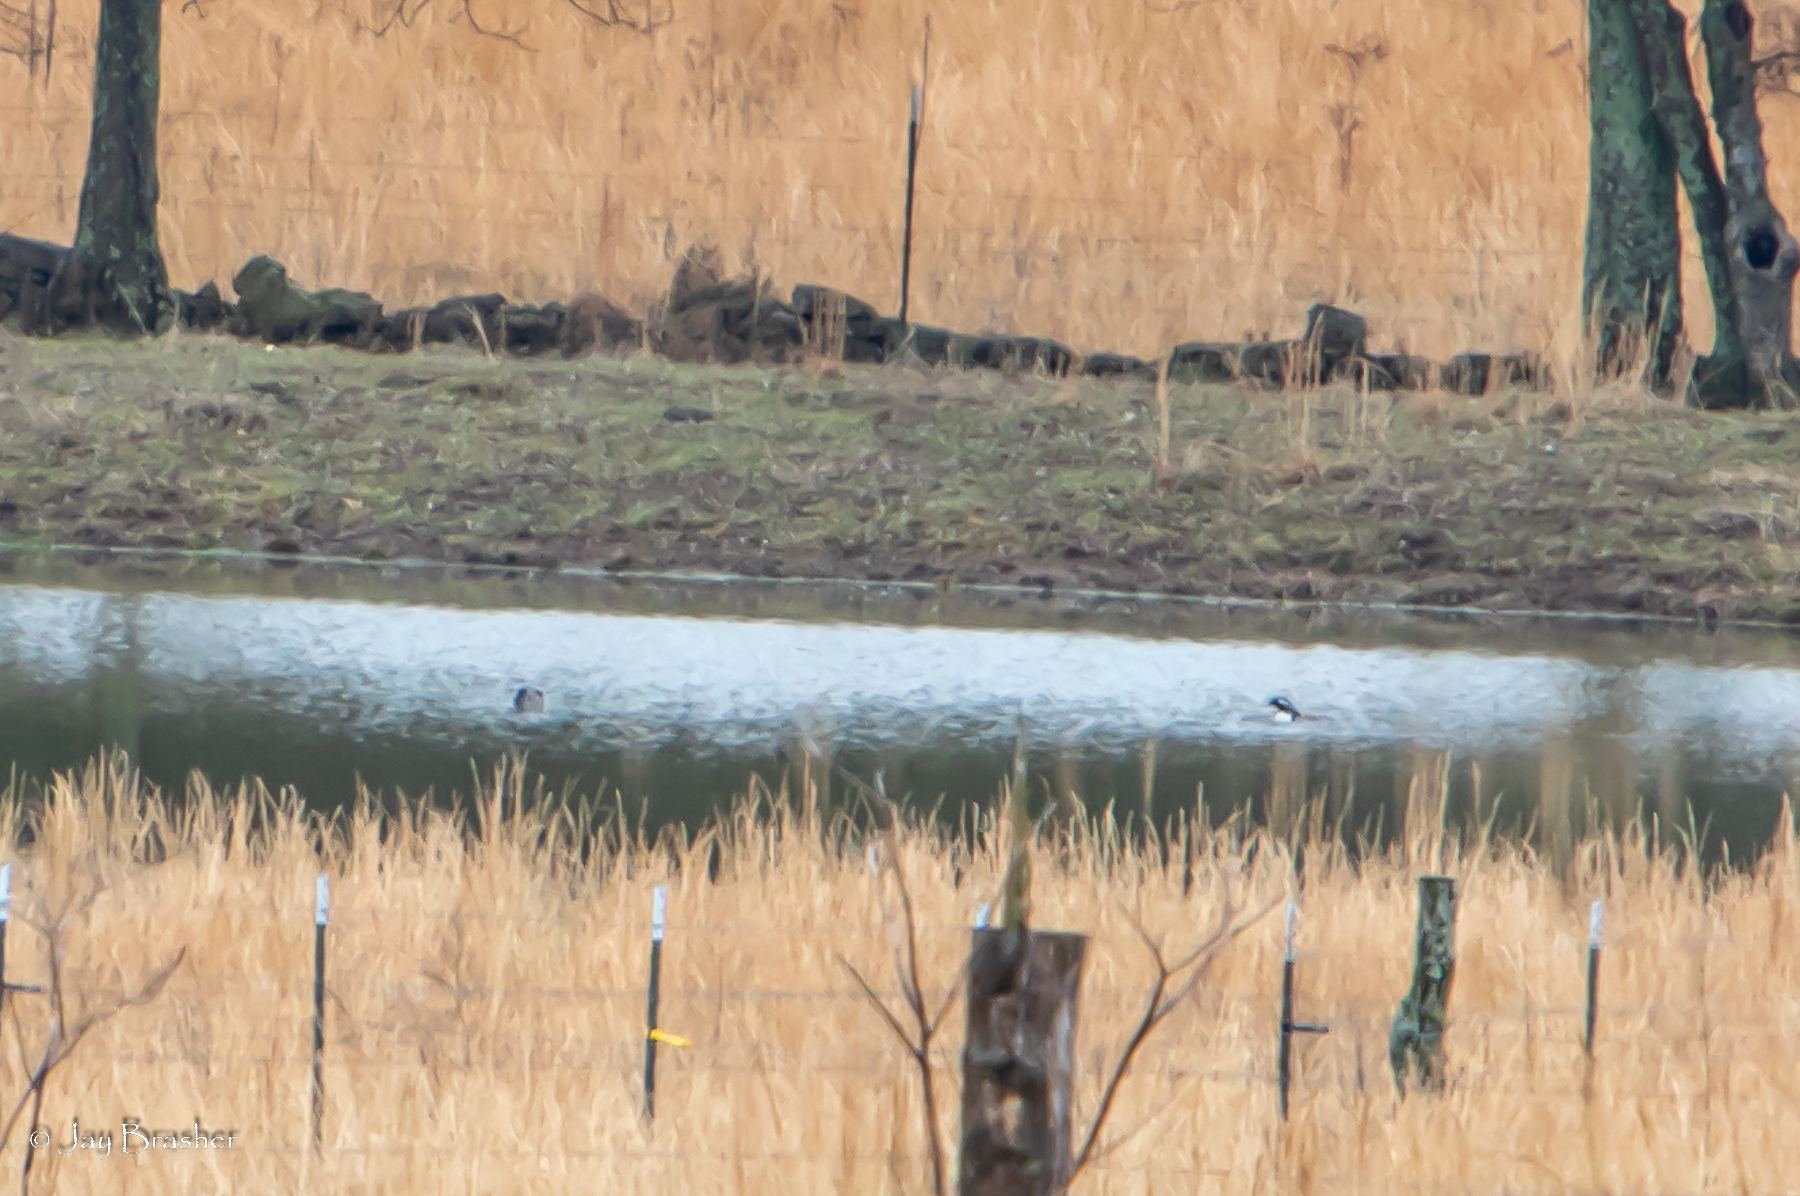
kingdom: Animalia
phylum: Chordata
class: Aves
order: Anseriformes
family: Anatidae
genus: Lophodytes
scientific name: Lophodytes cucullatus
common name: Hooded merganser
